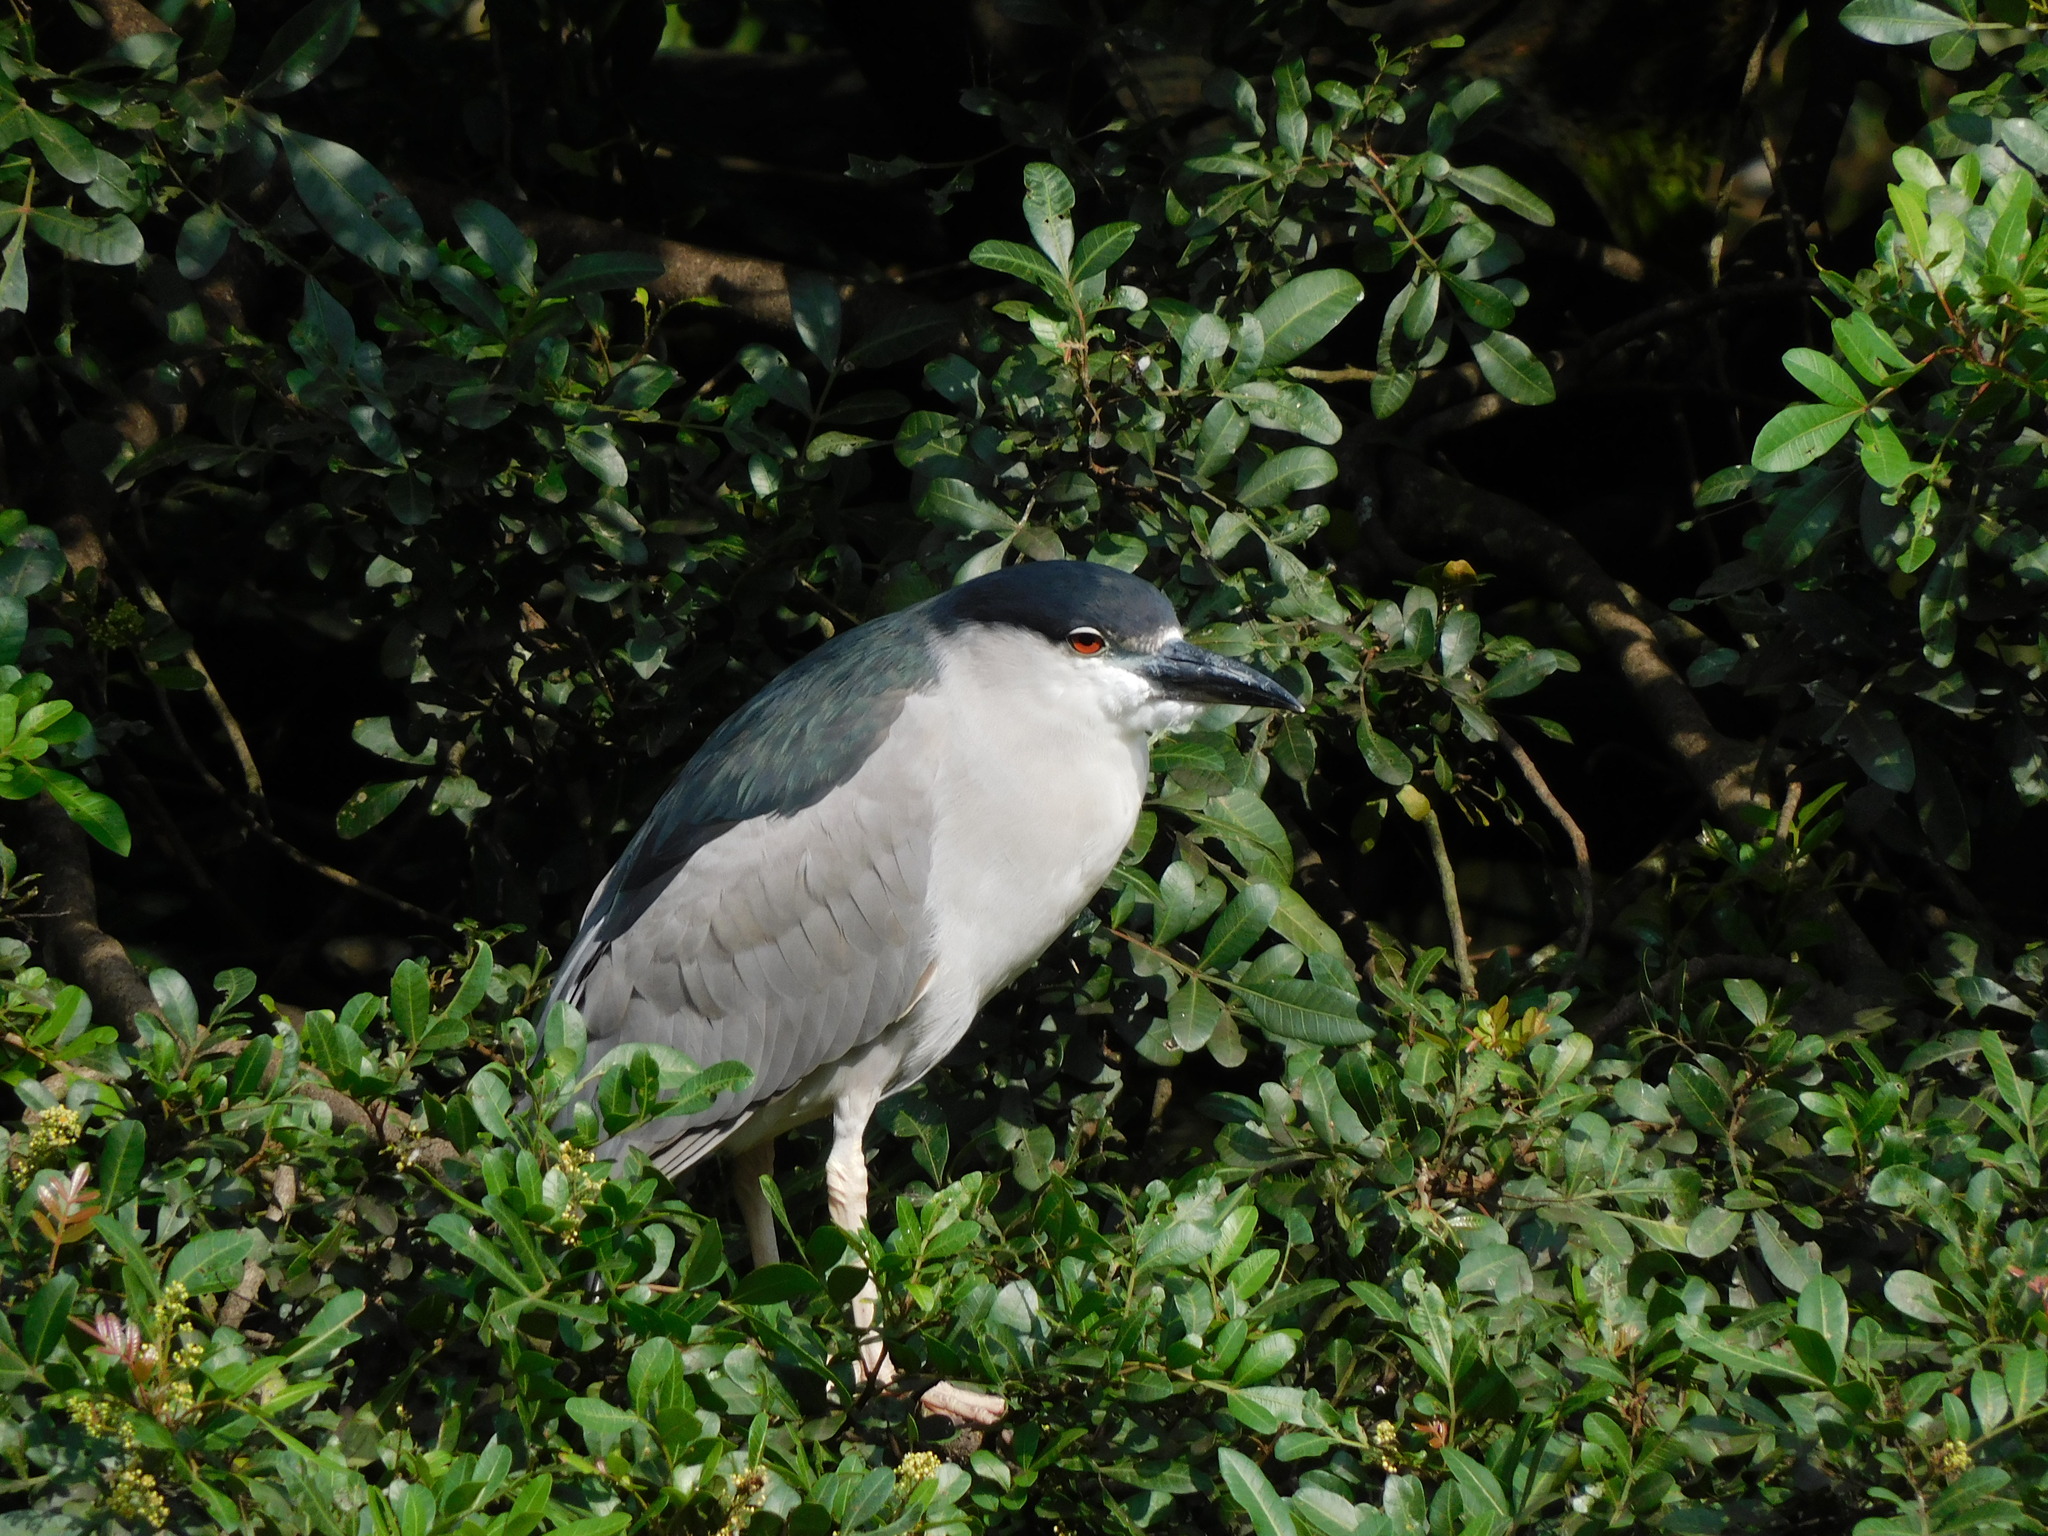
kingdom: Animalia
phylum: Chordata
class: Aves
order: Pelecaniformes
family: Ardeidae
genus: Nycticorax
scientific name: Nycticorax nycticorax
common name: Black-crowned night heron
